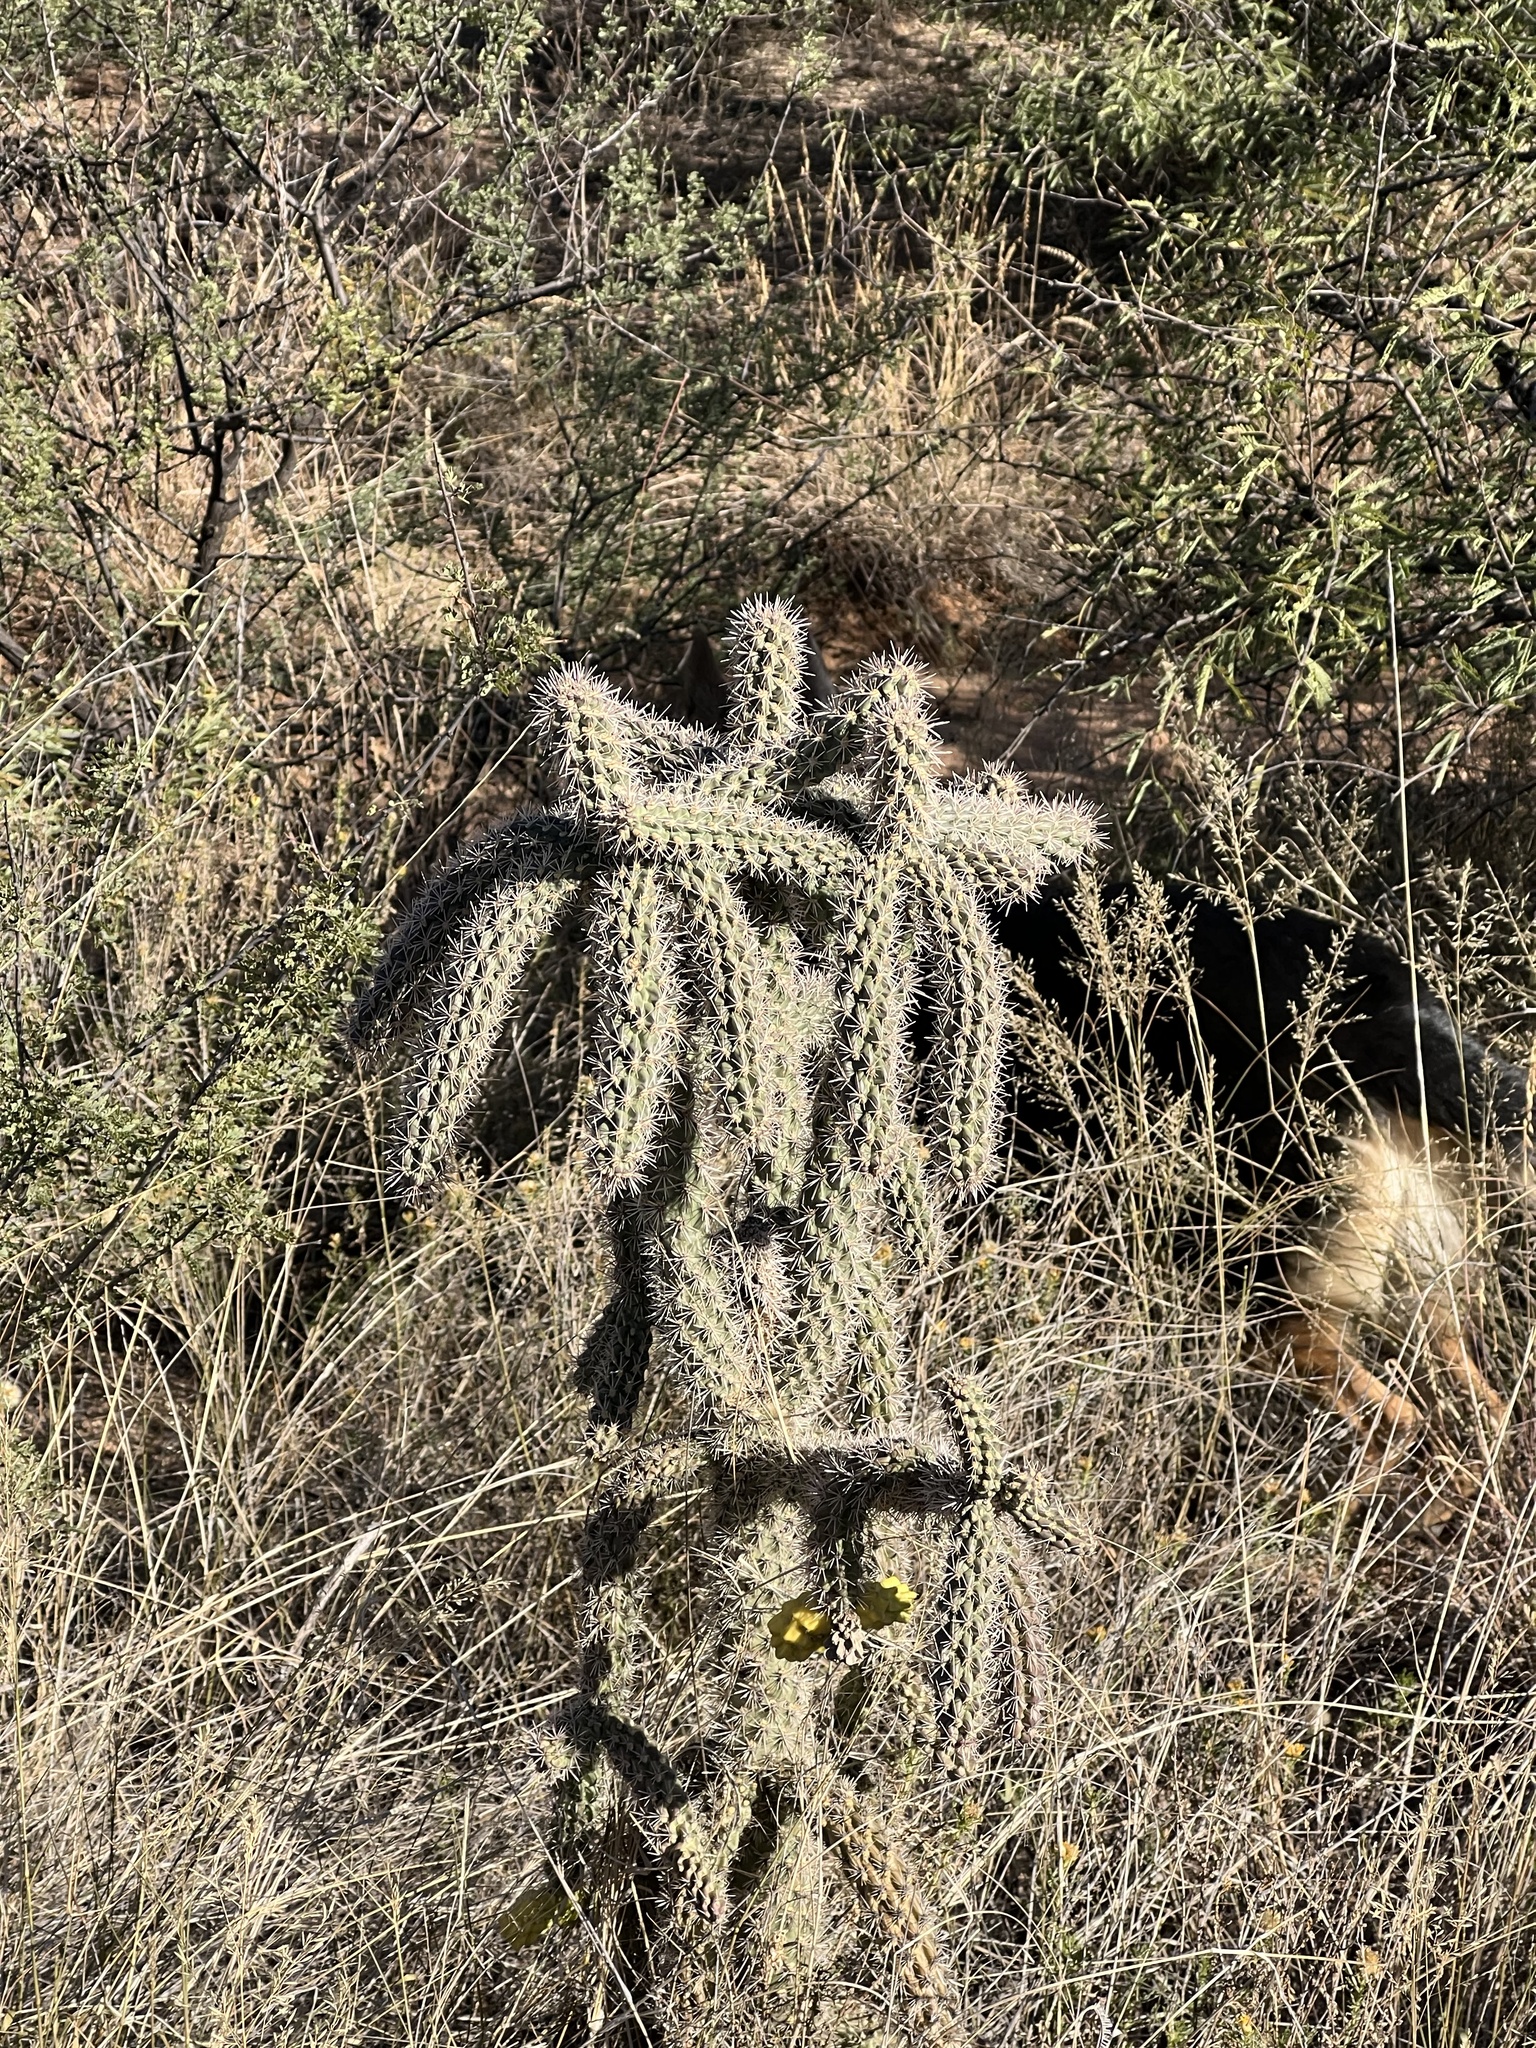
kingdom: Plantae
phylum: Tracheophyta
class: Magnoliopsida
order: Caryophyllales
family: Cactaceae
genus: Cylindropuntia
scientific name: Cylindropuntia imbricata
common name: Candelabrum cactus
